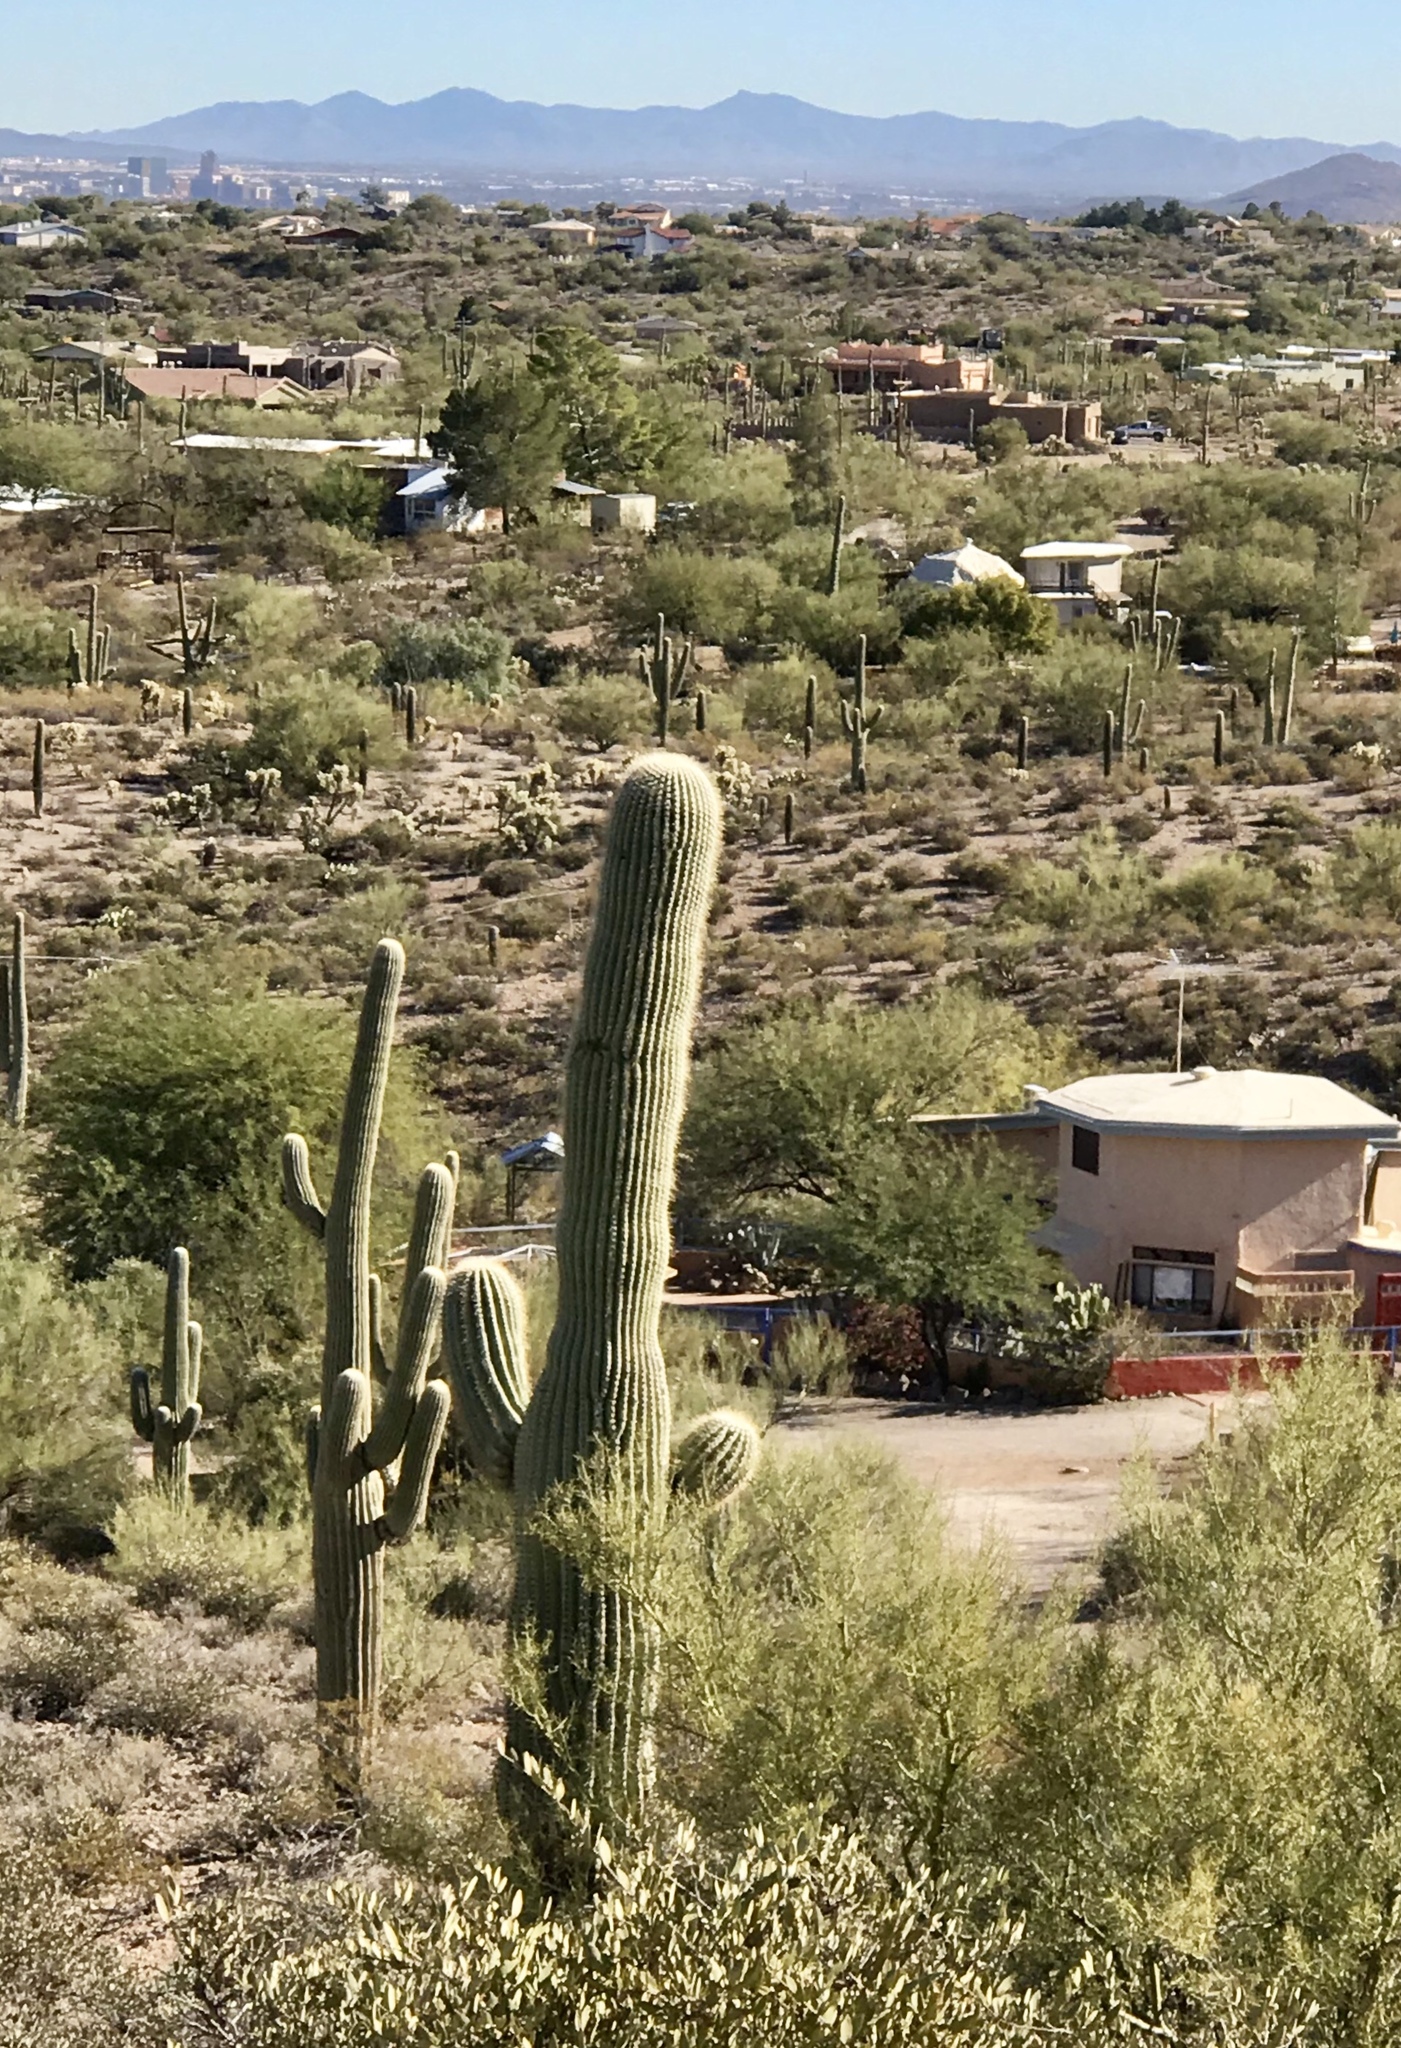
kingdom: Plantae
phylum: Tracheophyta
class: Magnoliopsida
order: Caryophyllales
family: Cactaceae
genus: Carnegiea
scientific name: Carnegiea gigantea
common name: Saguaro
